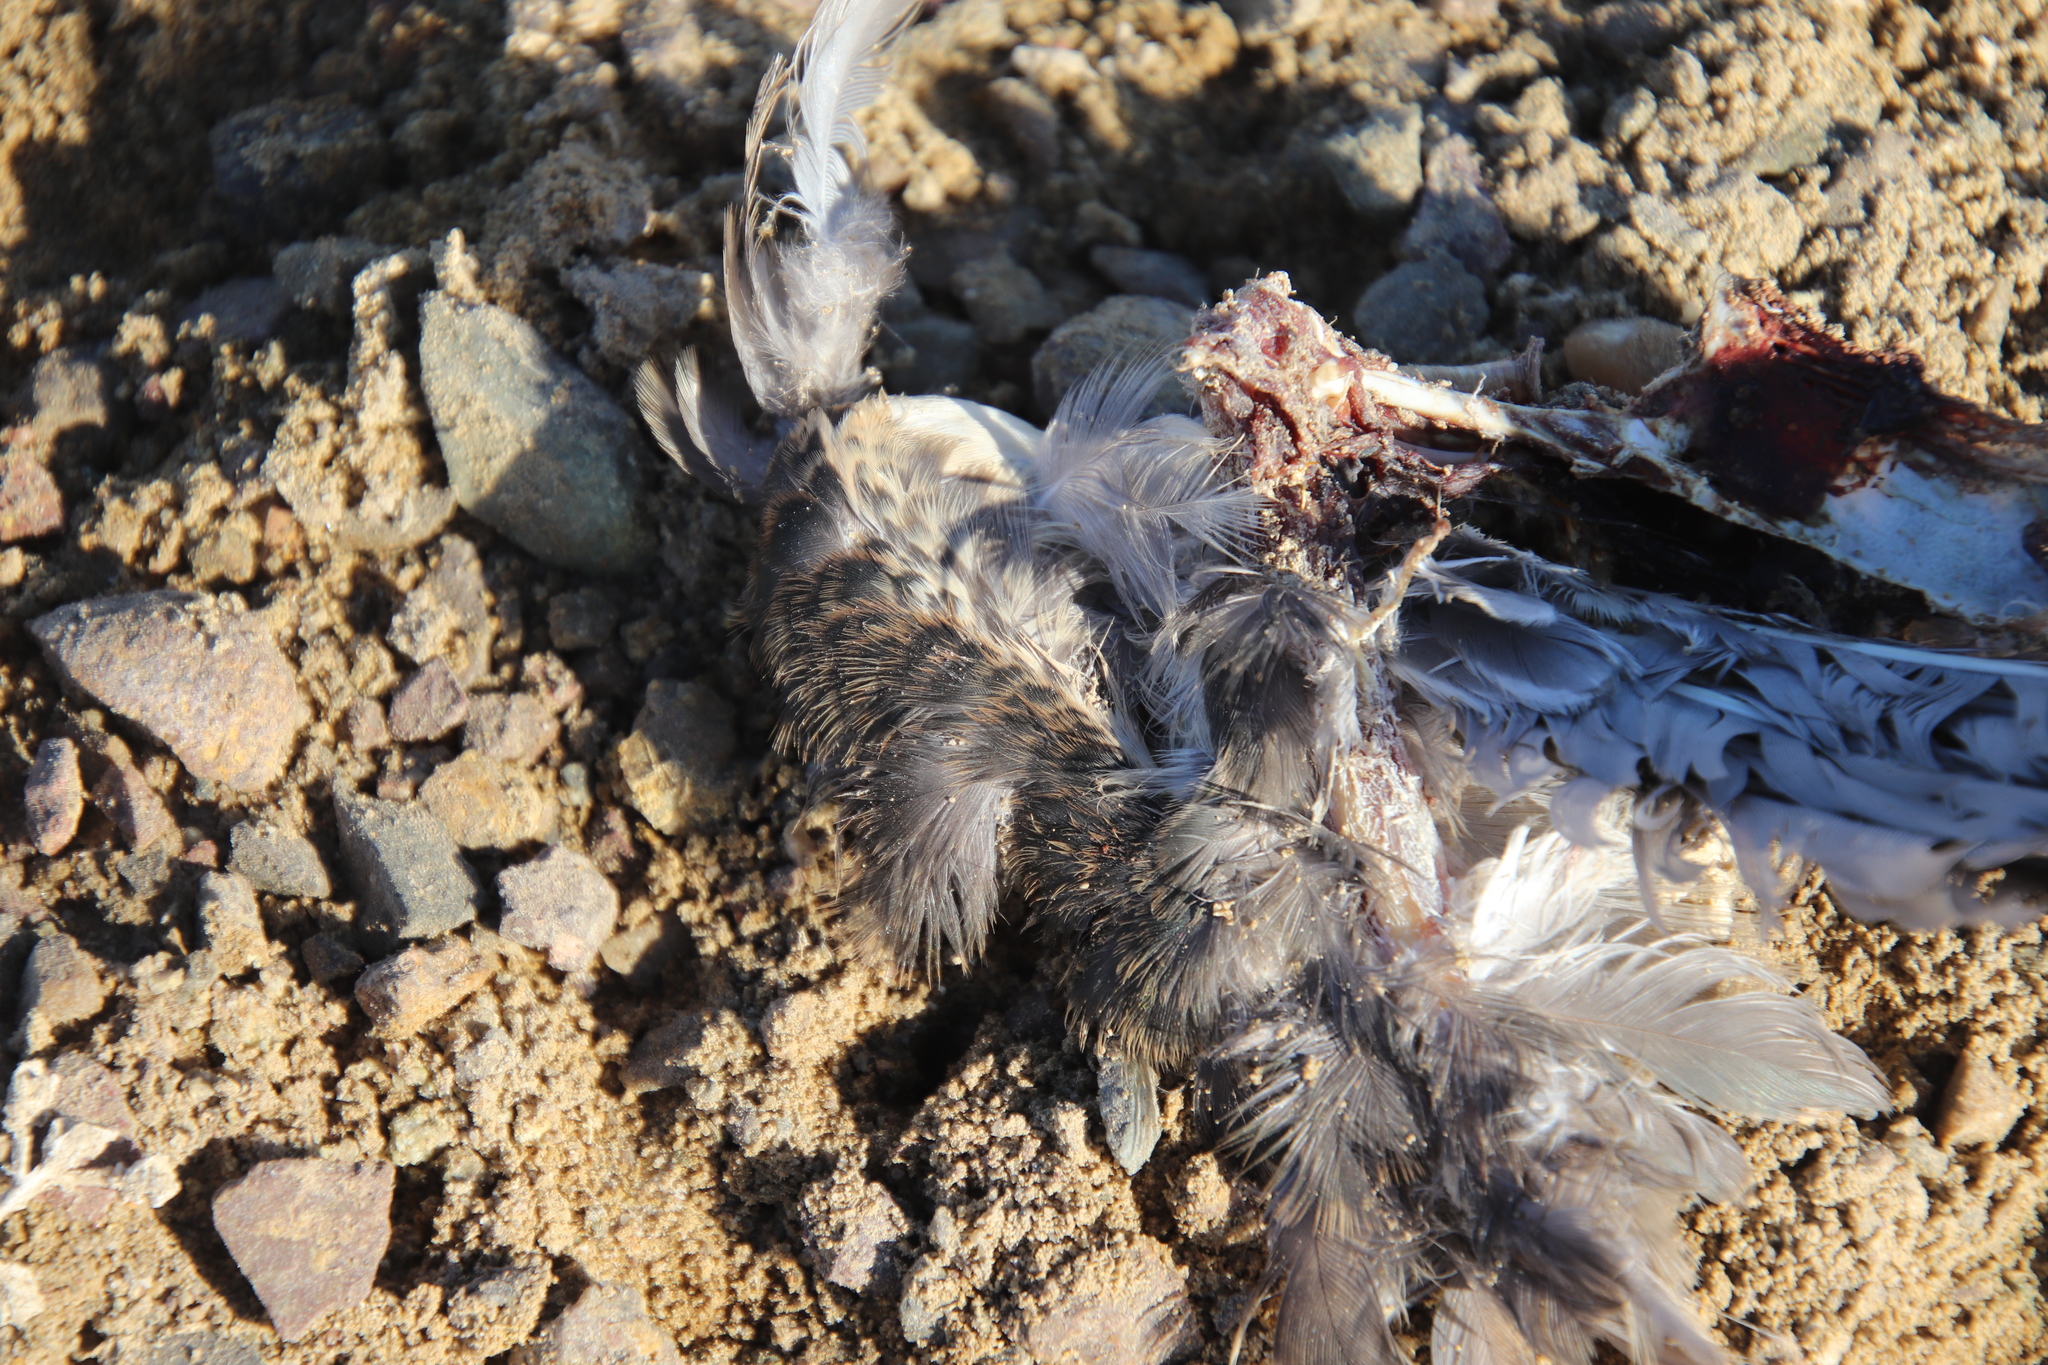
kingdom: Animalia
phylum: Chordata
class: Aves
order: Pelecaniformes
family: Ardeidae
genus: Butorides
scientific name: Butorides virescens
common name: Green heron
